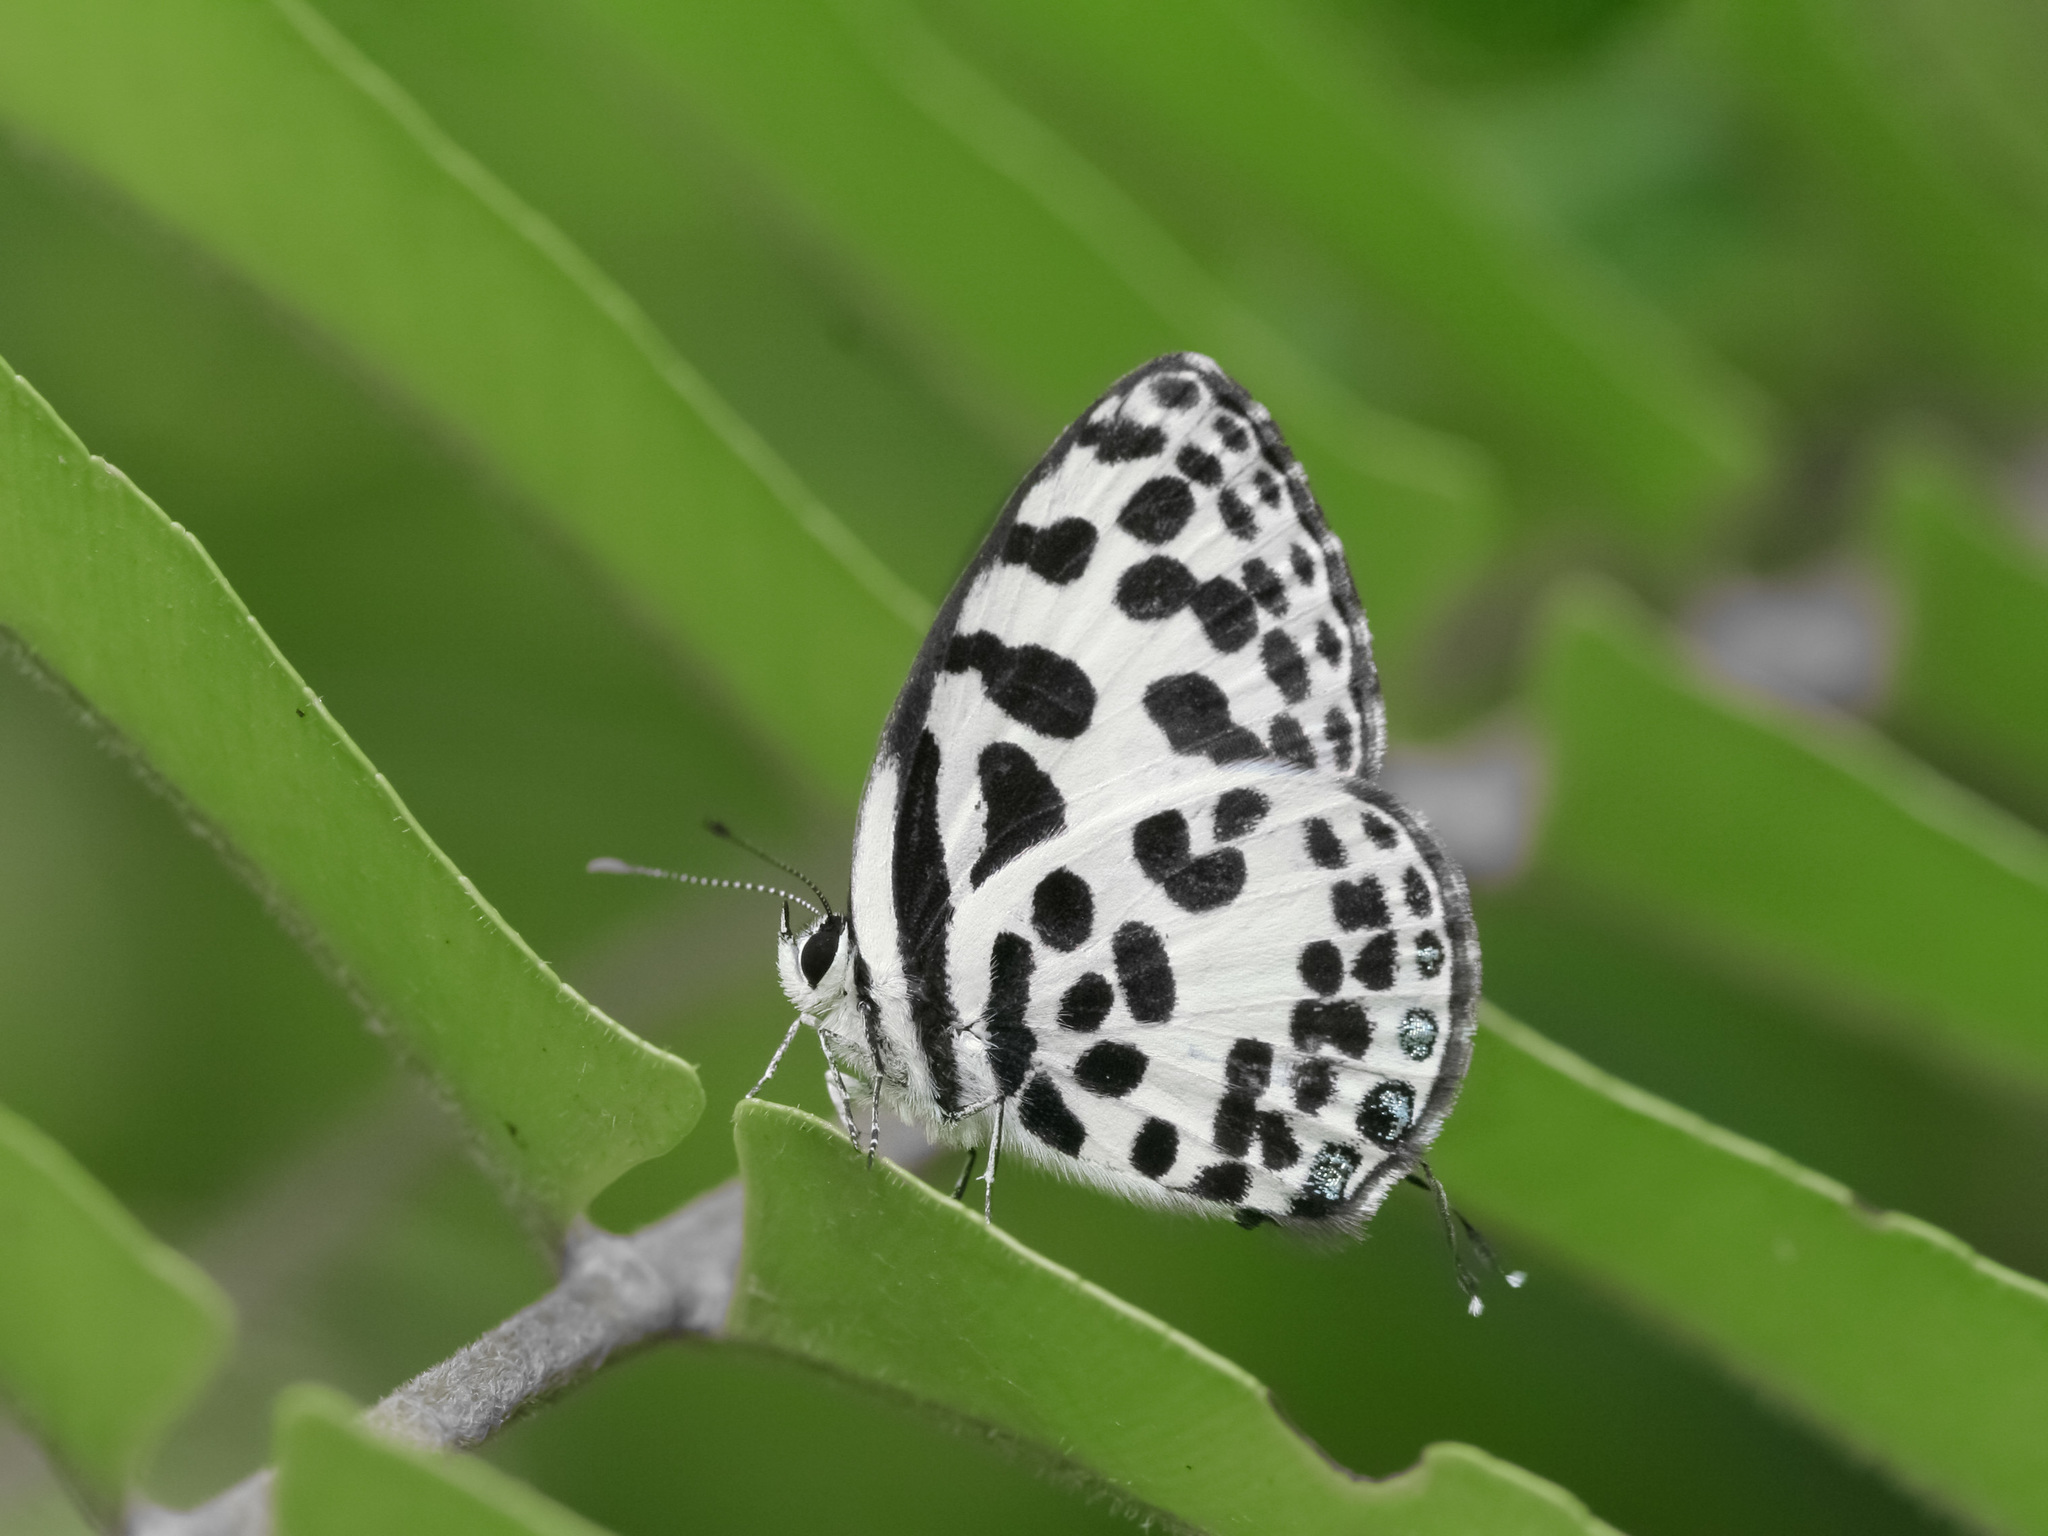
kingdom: Animalia
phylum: Arthropoda
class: Insecta
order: Lepidoptera
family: Lycaenidae
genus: Castalius
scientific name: Castalius rosimon
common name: Common pierrot
